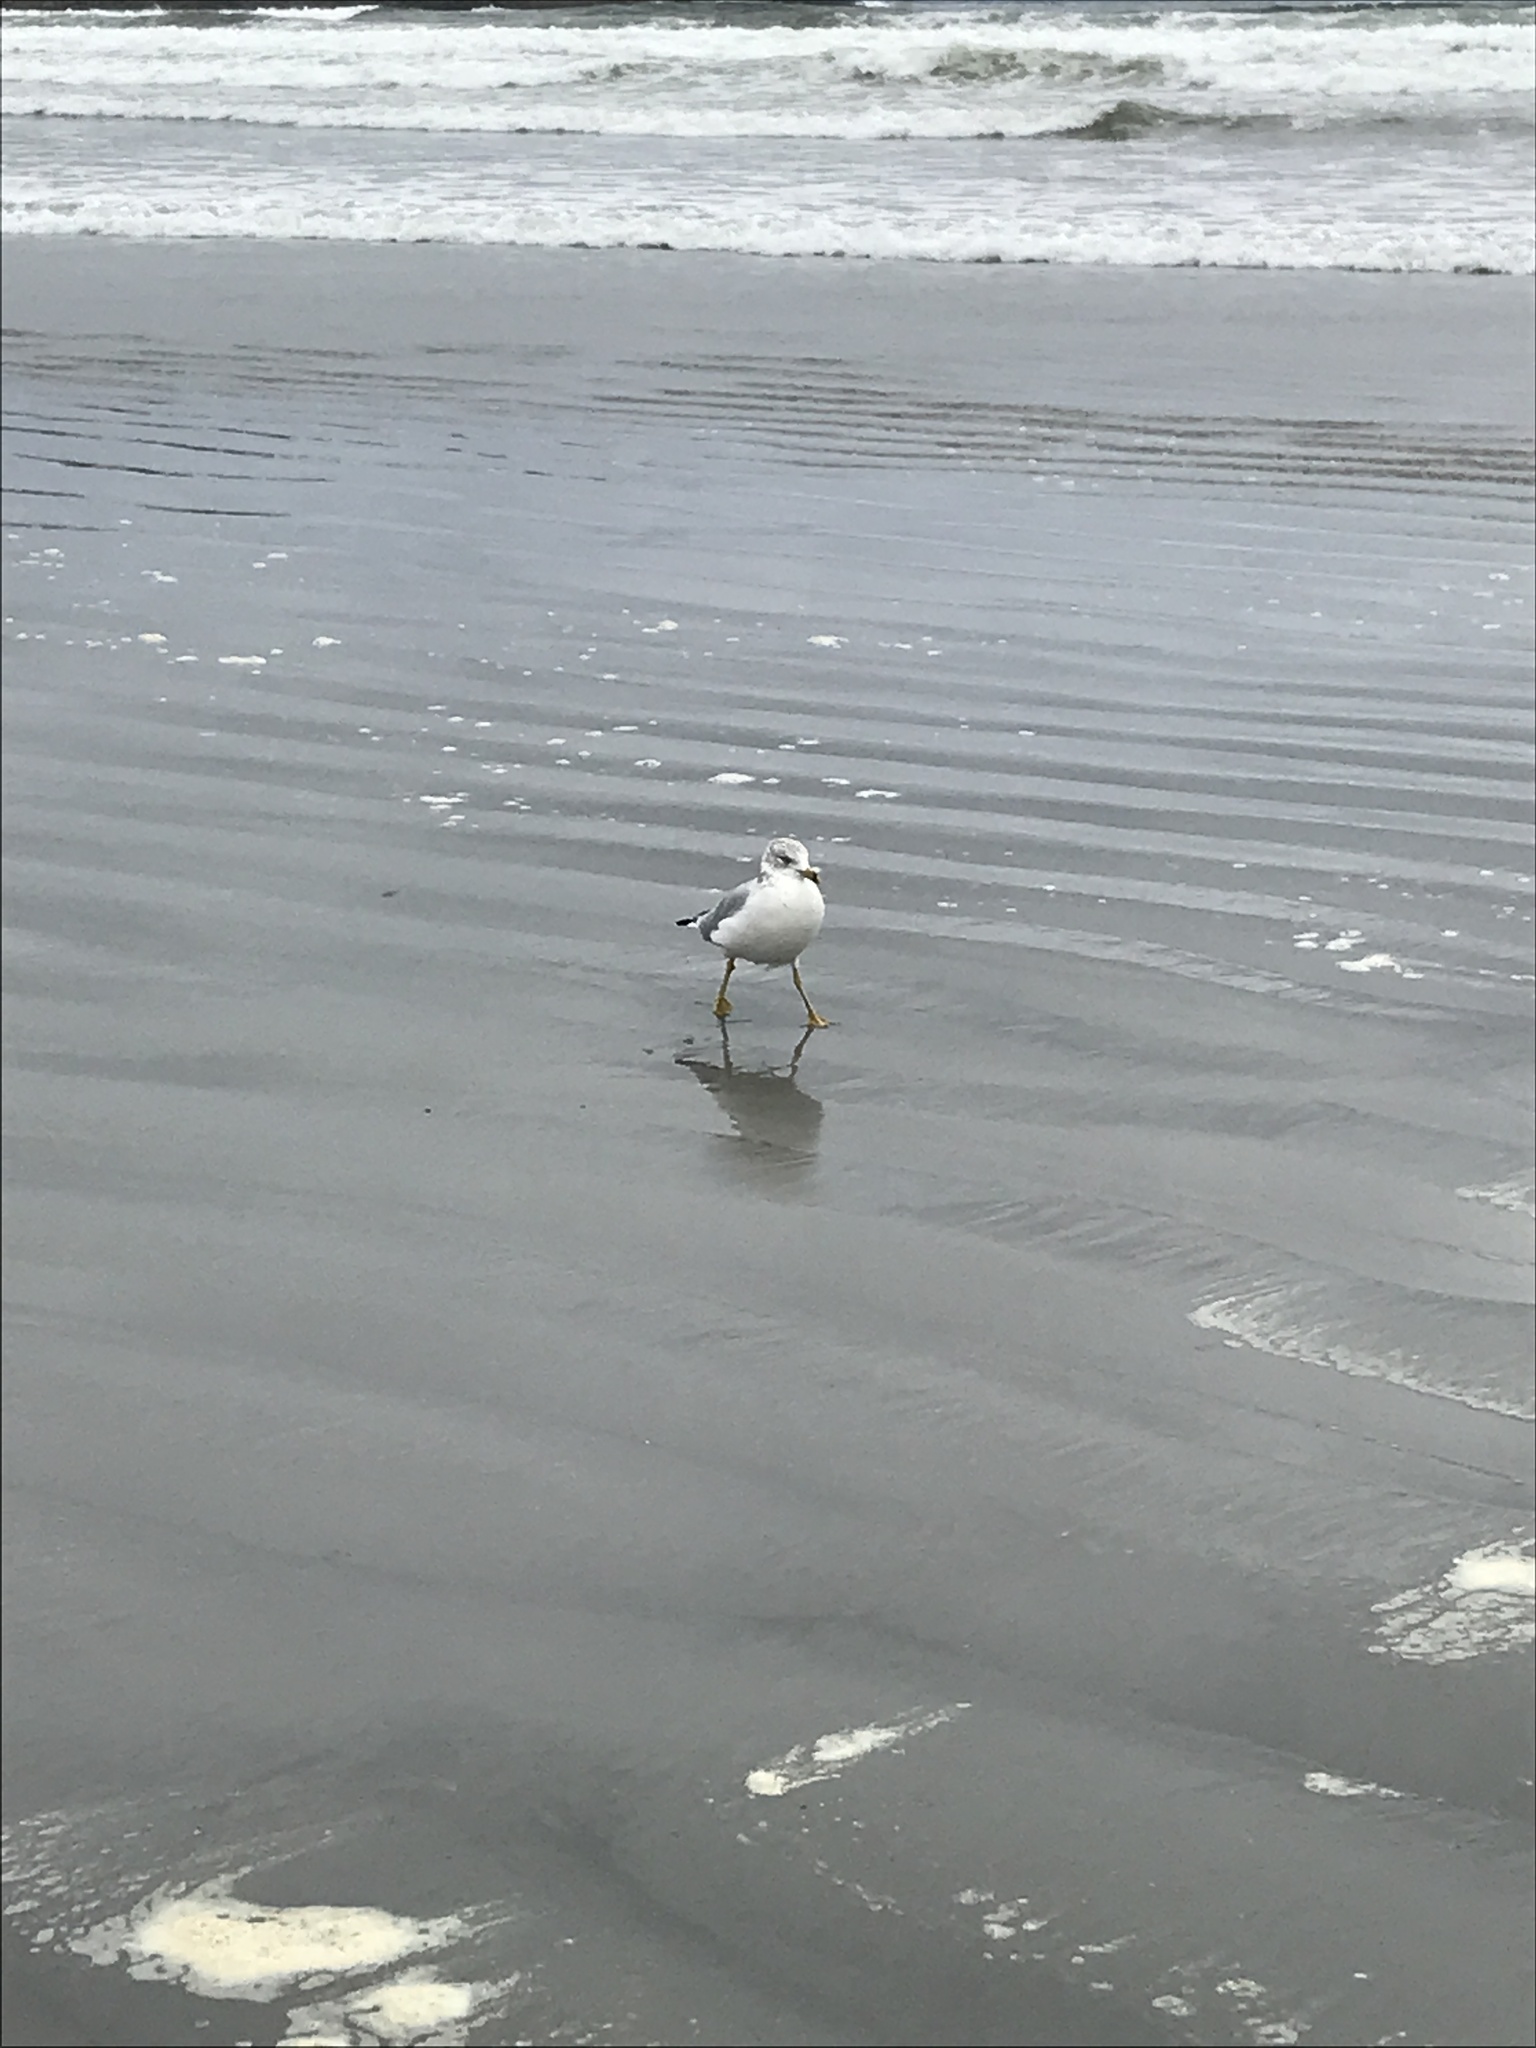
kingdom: Animalia
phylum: Chordata
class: Aves
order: Charadriiformes
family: Laridae
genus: Larus
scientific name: Larus delawarensis
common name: Ring-billed gull
